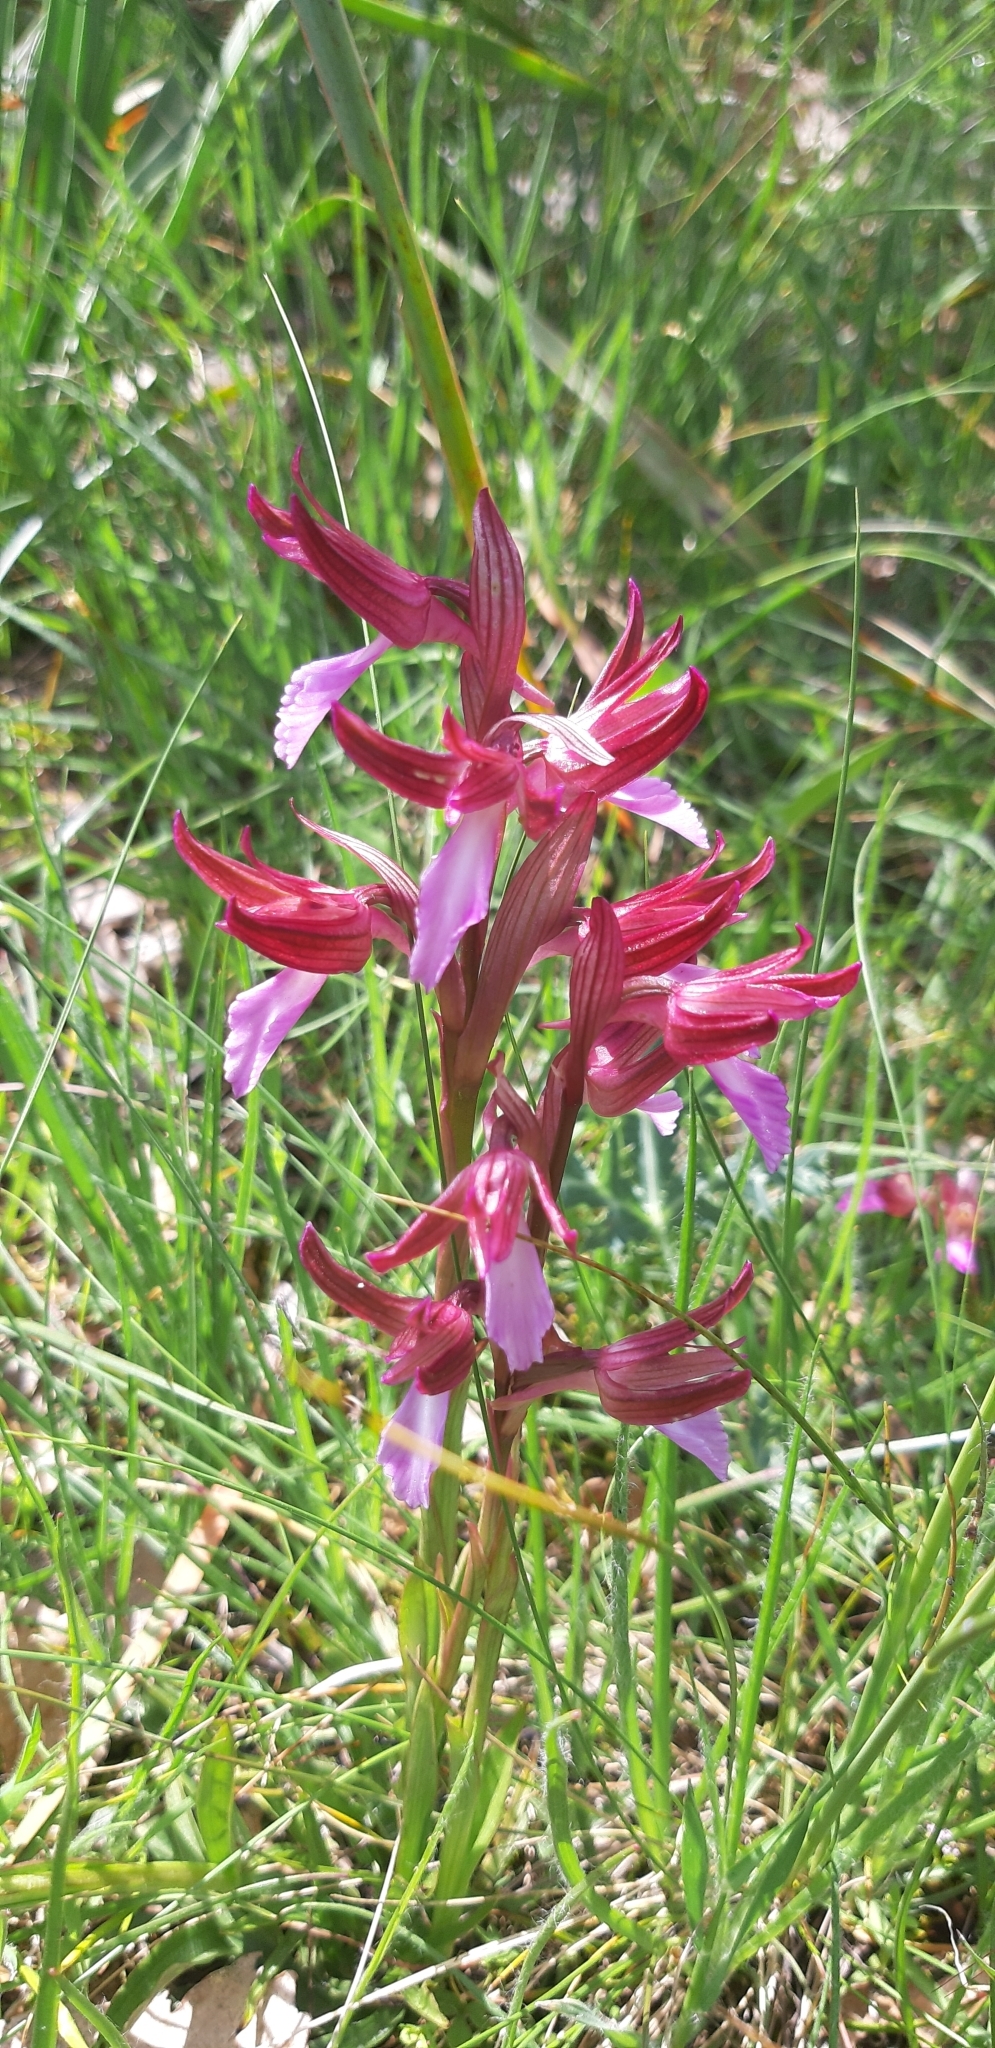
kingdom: Plantae
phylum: Tracheophyta
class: Liliopsida
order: Asparagales
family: Orchidaceae
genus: Anacamptis
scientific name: Anacamptis papilionacea
